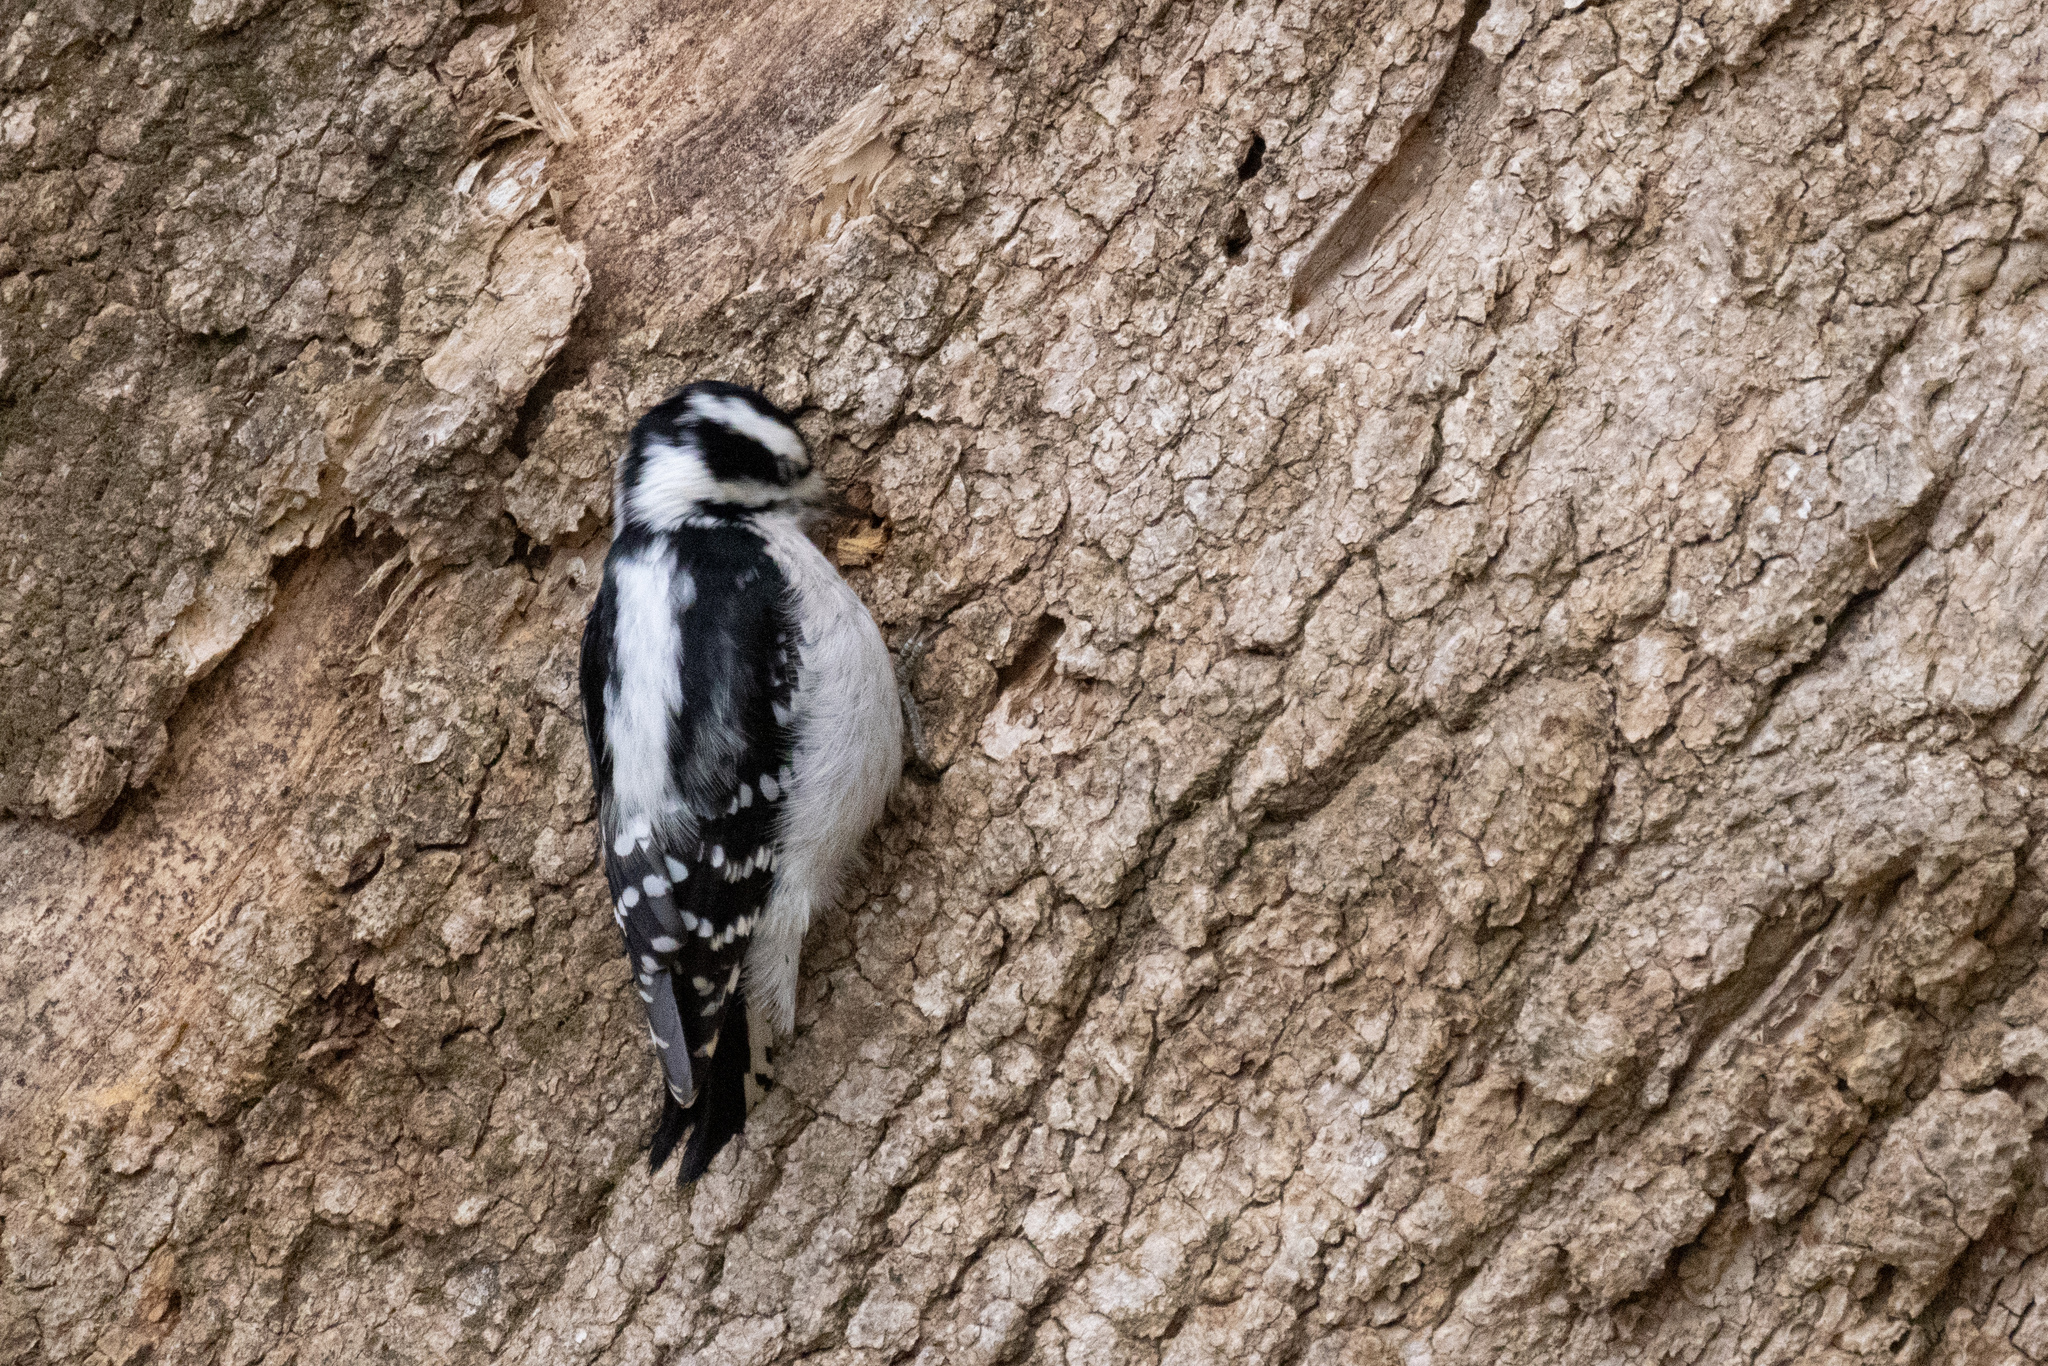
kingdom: Animalia
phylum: Chordata
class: Aves
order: Piciformes
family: Picidae
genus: Dryobates
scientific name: Dryobates pubescens
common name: Downy woodpecker
